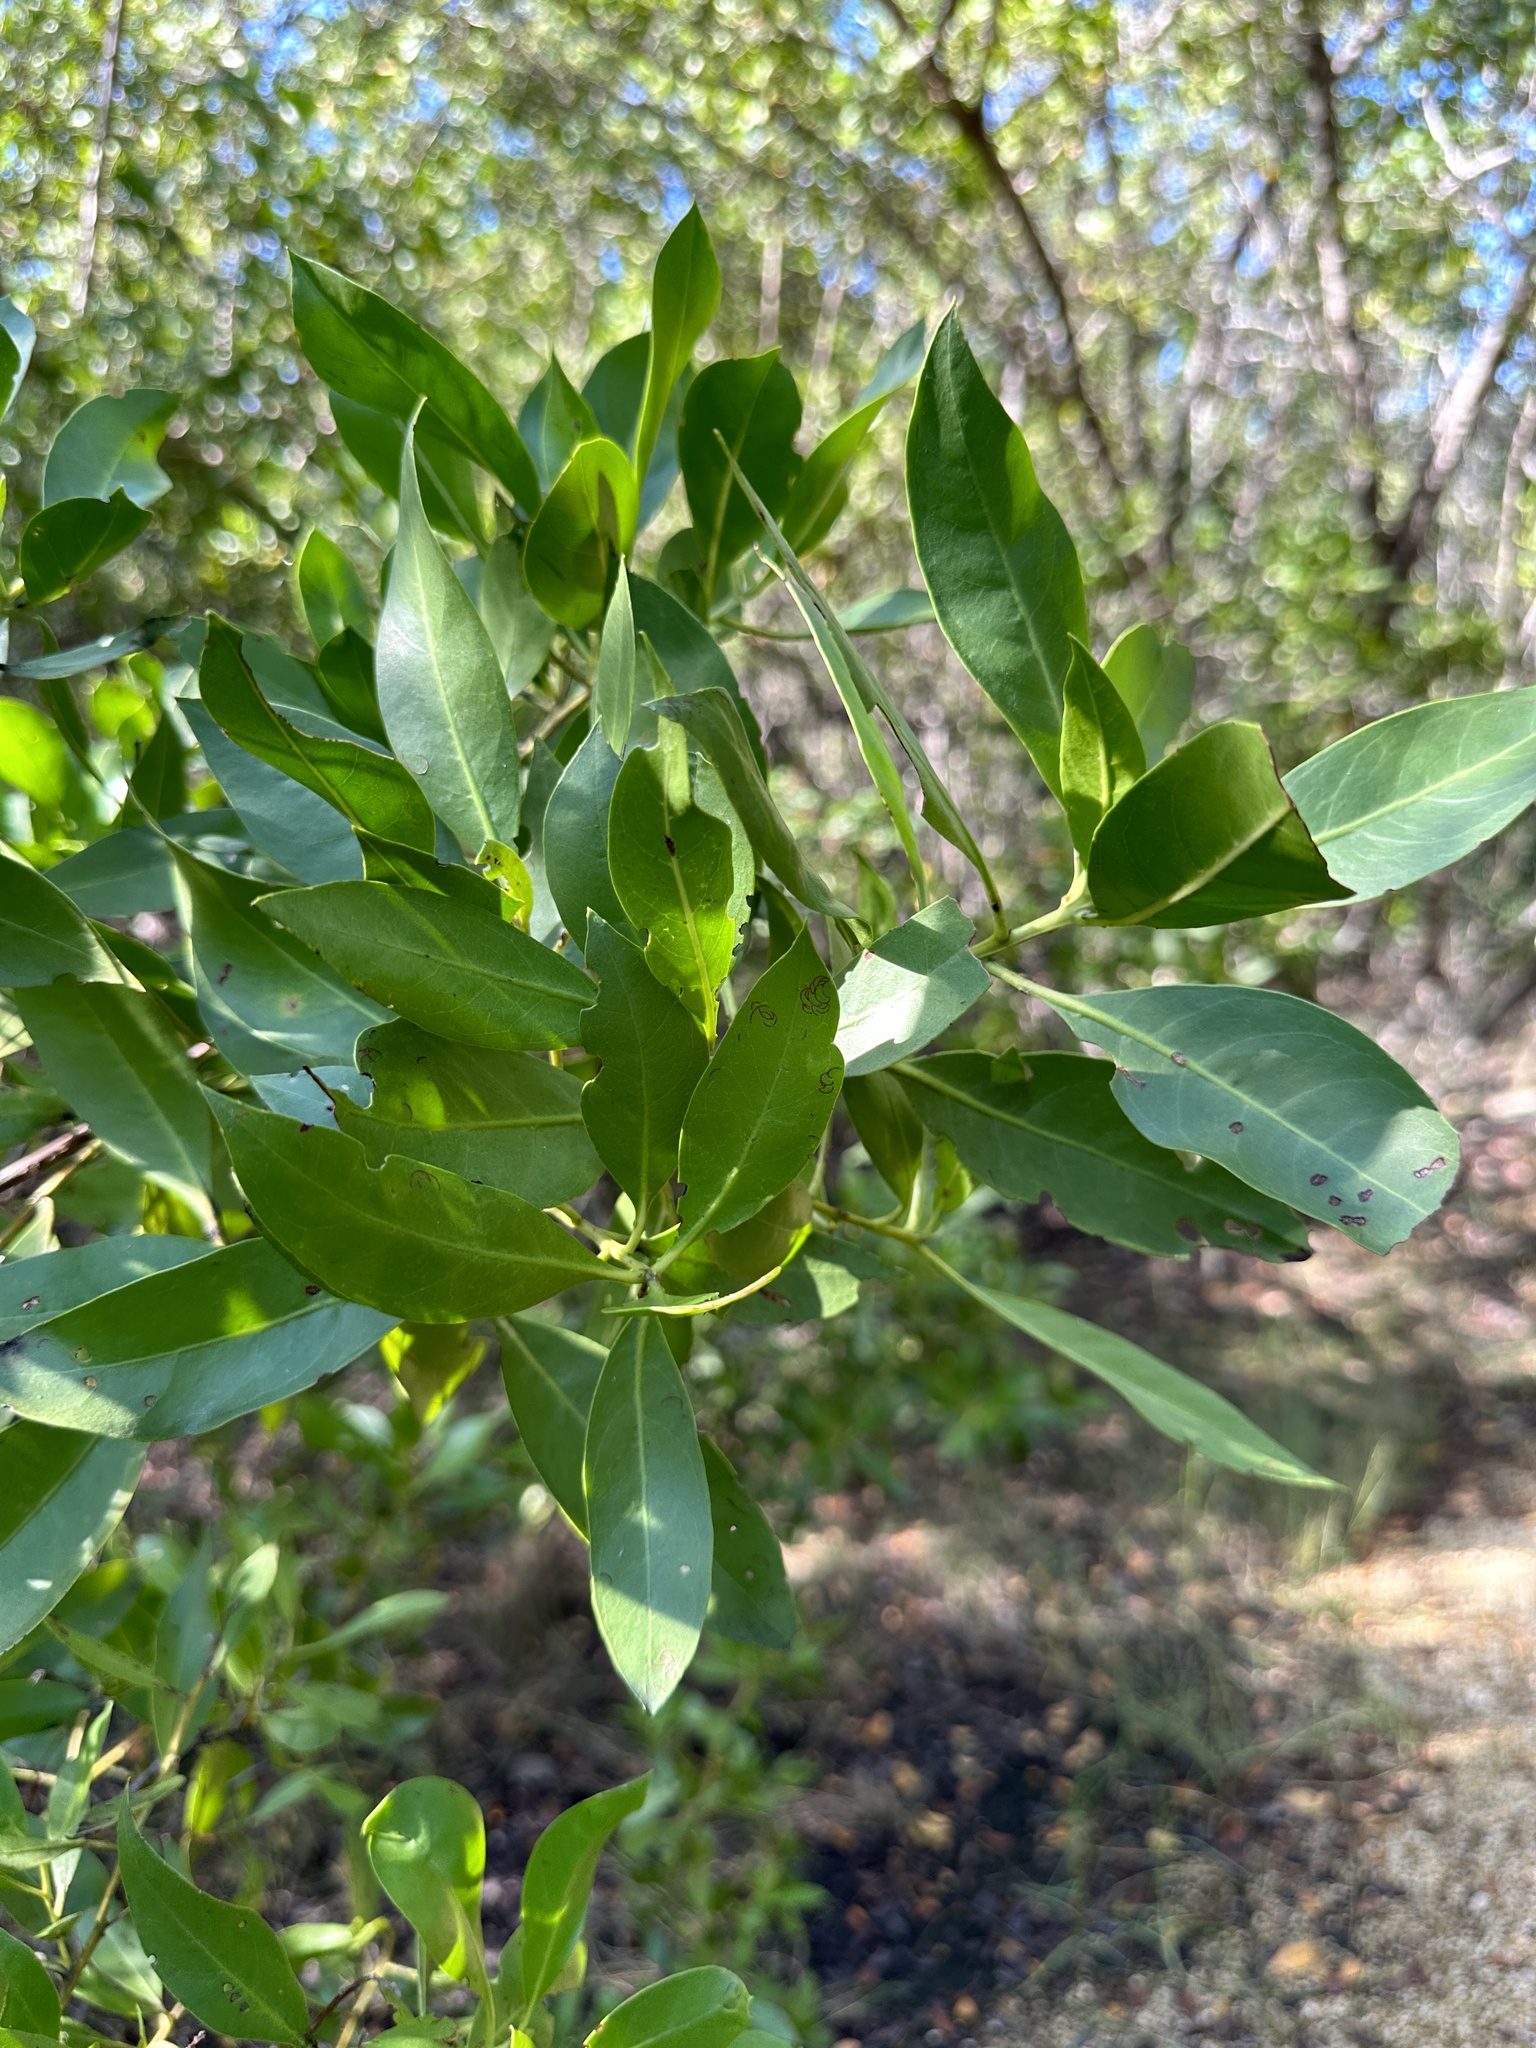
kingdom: Plantae
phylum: Tracheophyta
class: Magnoliopsida
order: Myrtales
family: Combretaceae
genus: Conocarpus
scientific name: Conocarpus erectus
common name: Button mangrove
